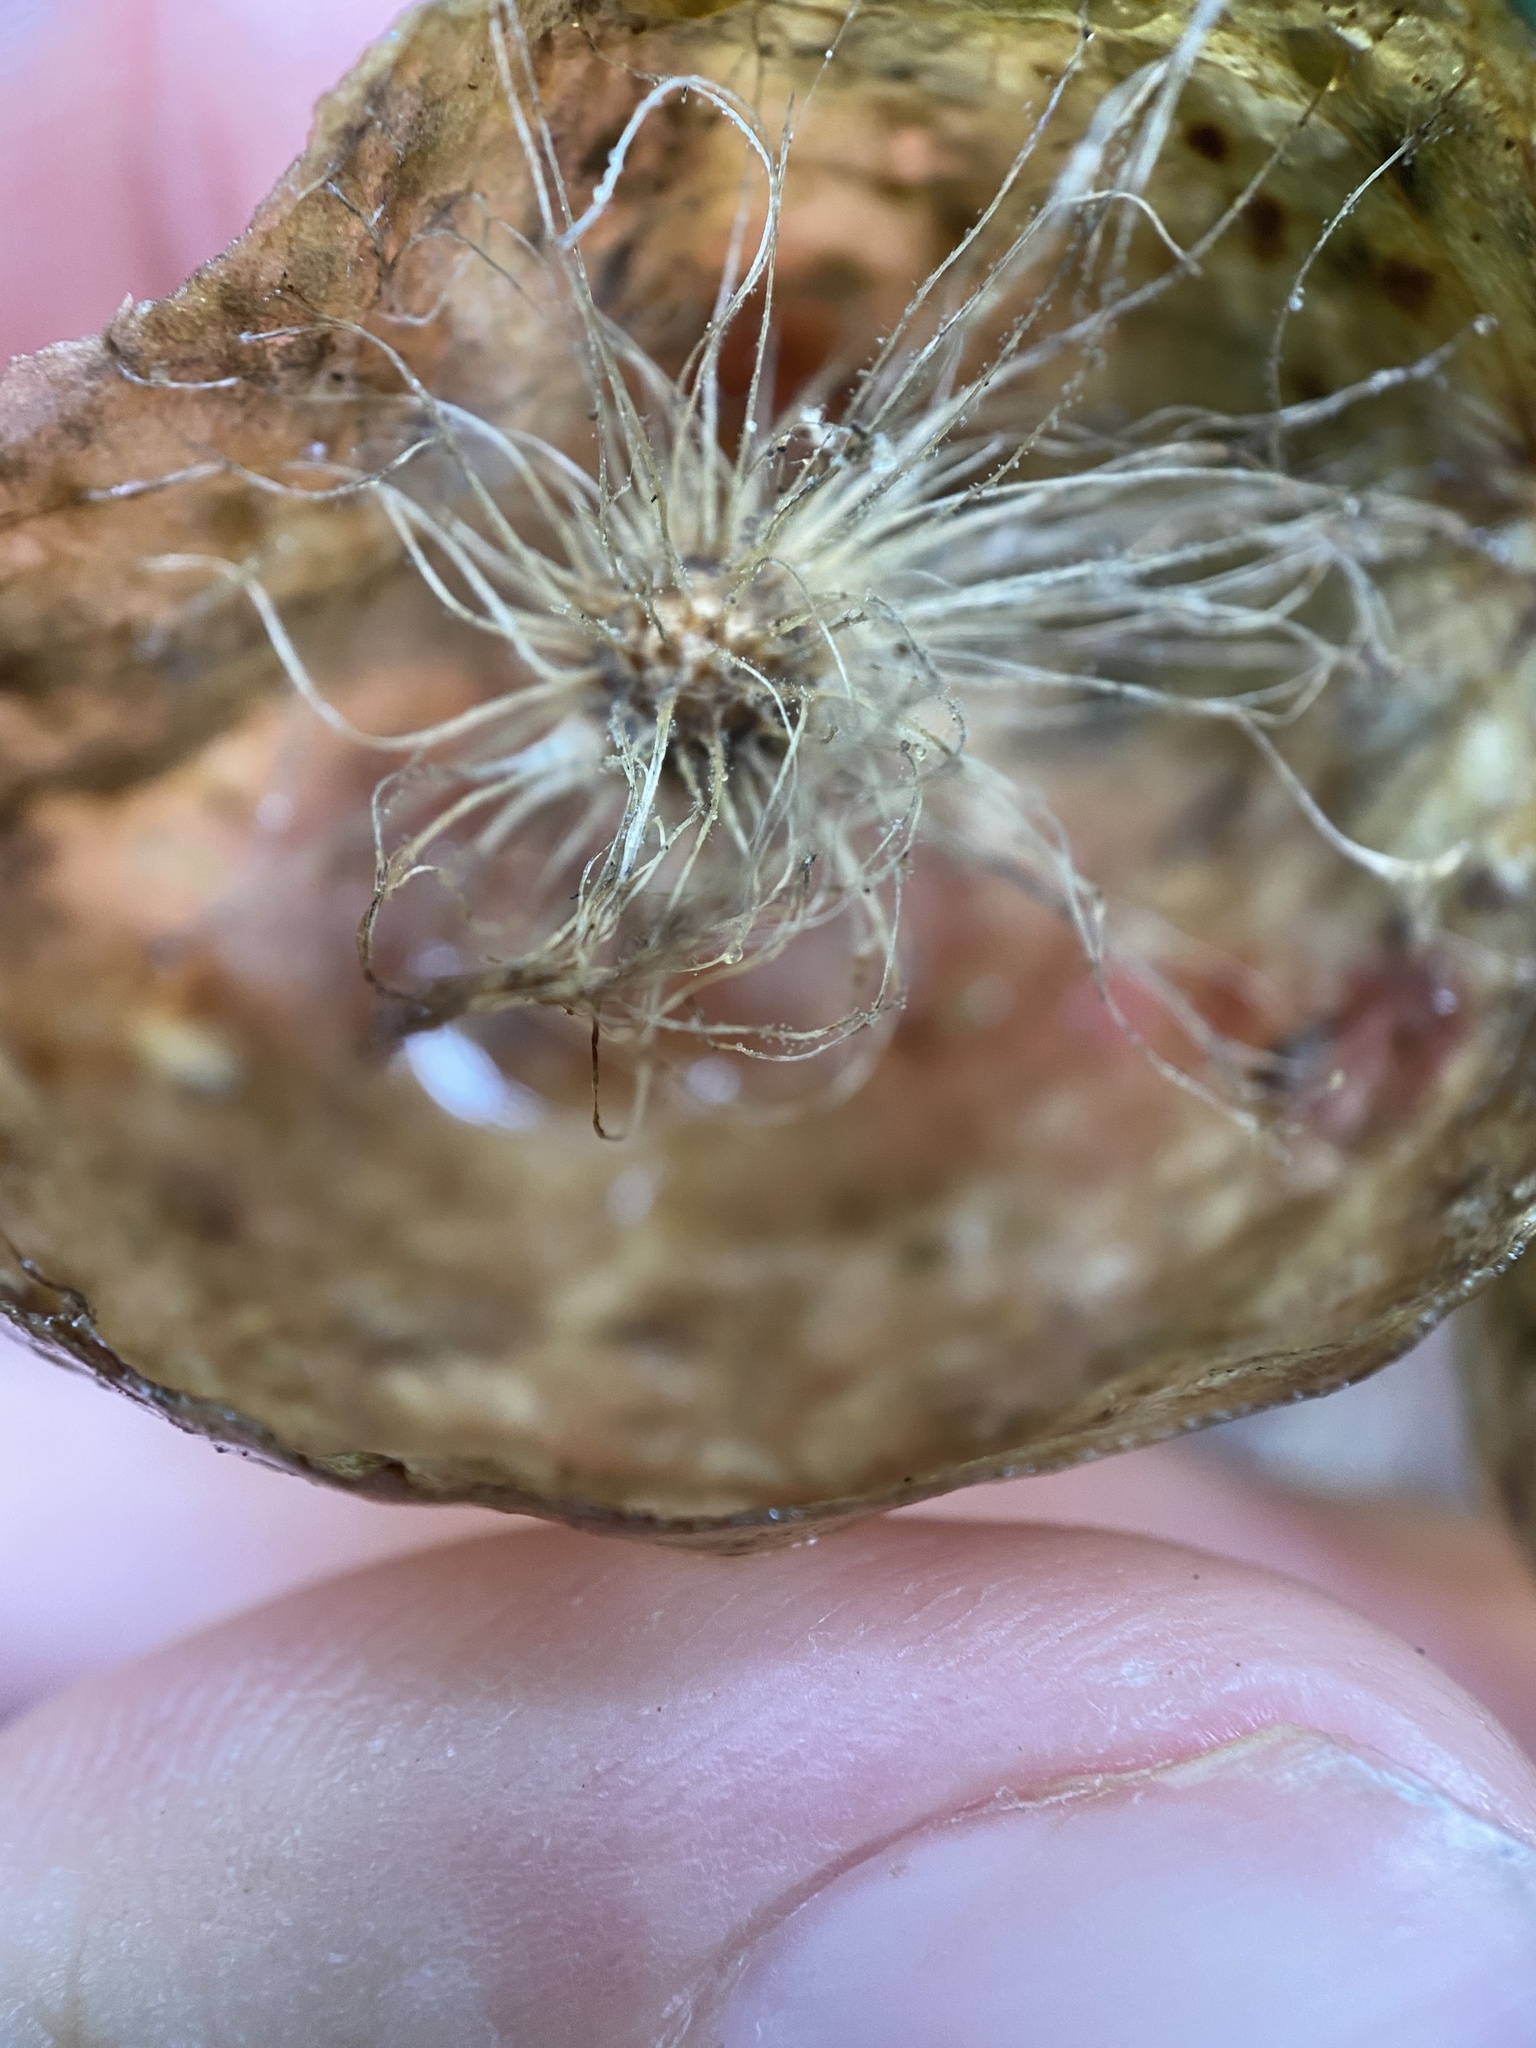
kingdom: Animalia
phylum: Arthropoda
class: Insecta
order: Hymenoptera
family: Cynipidae
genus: Amphibolips
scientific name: Amphibolips
